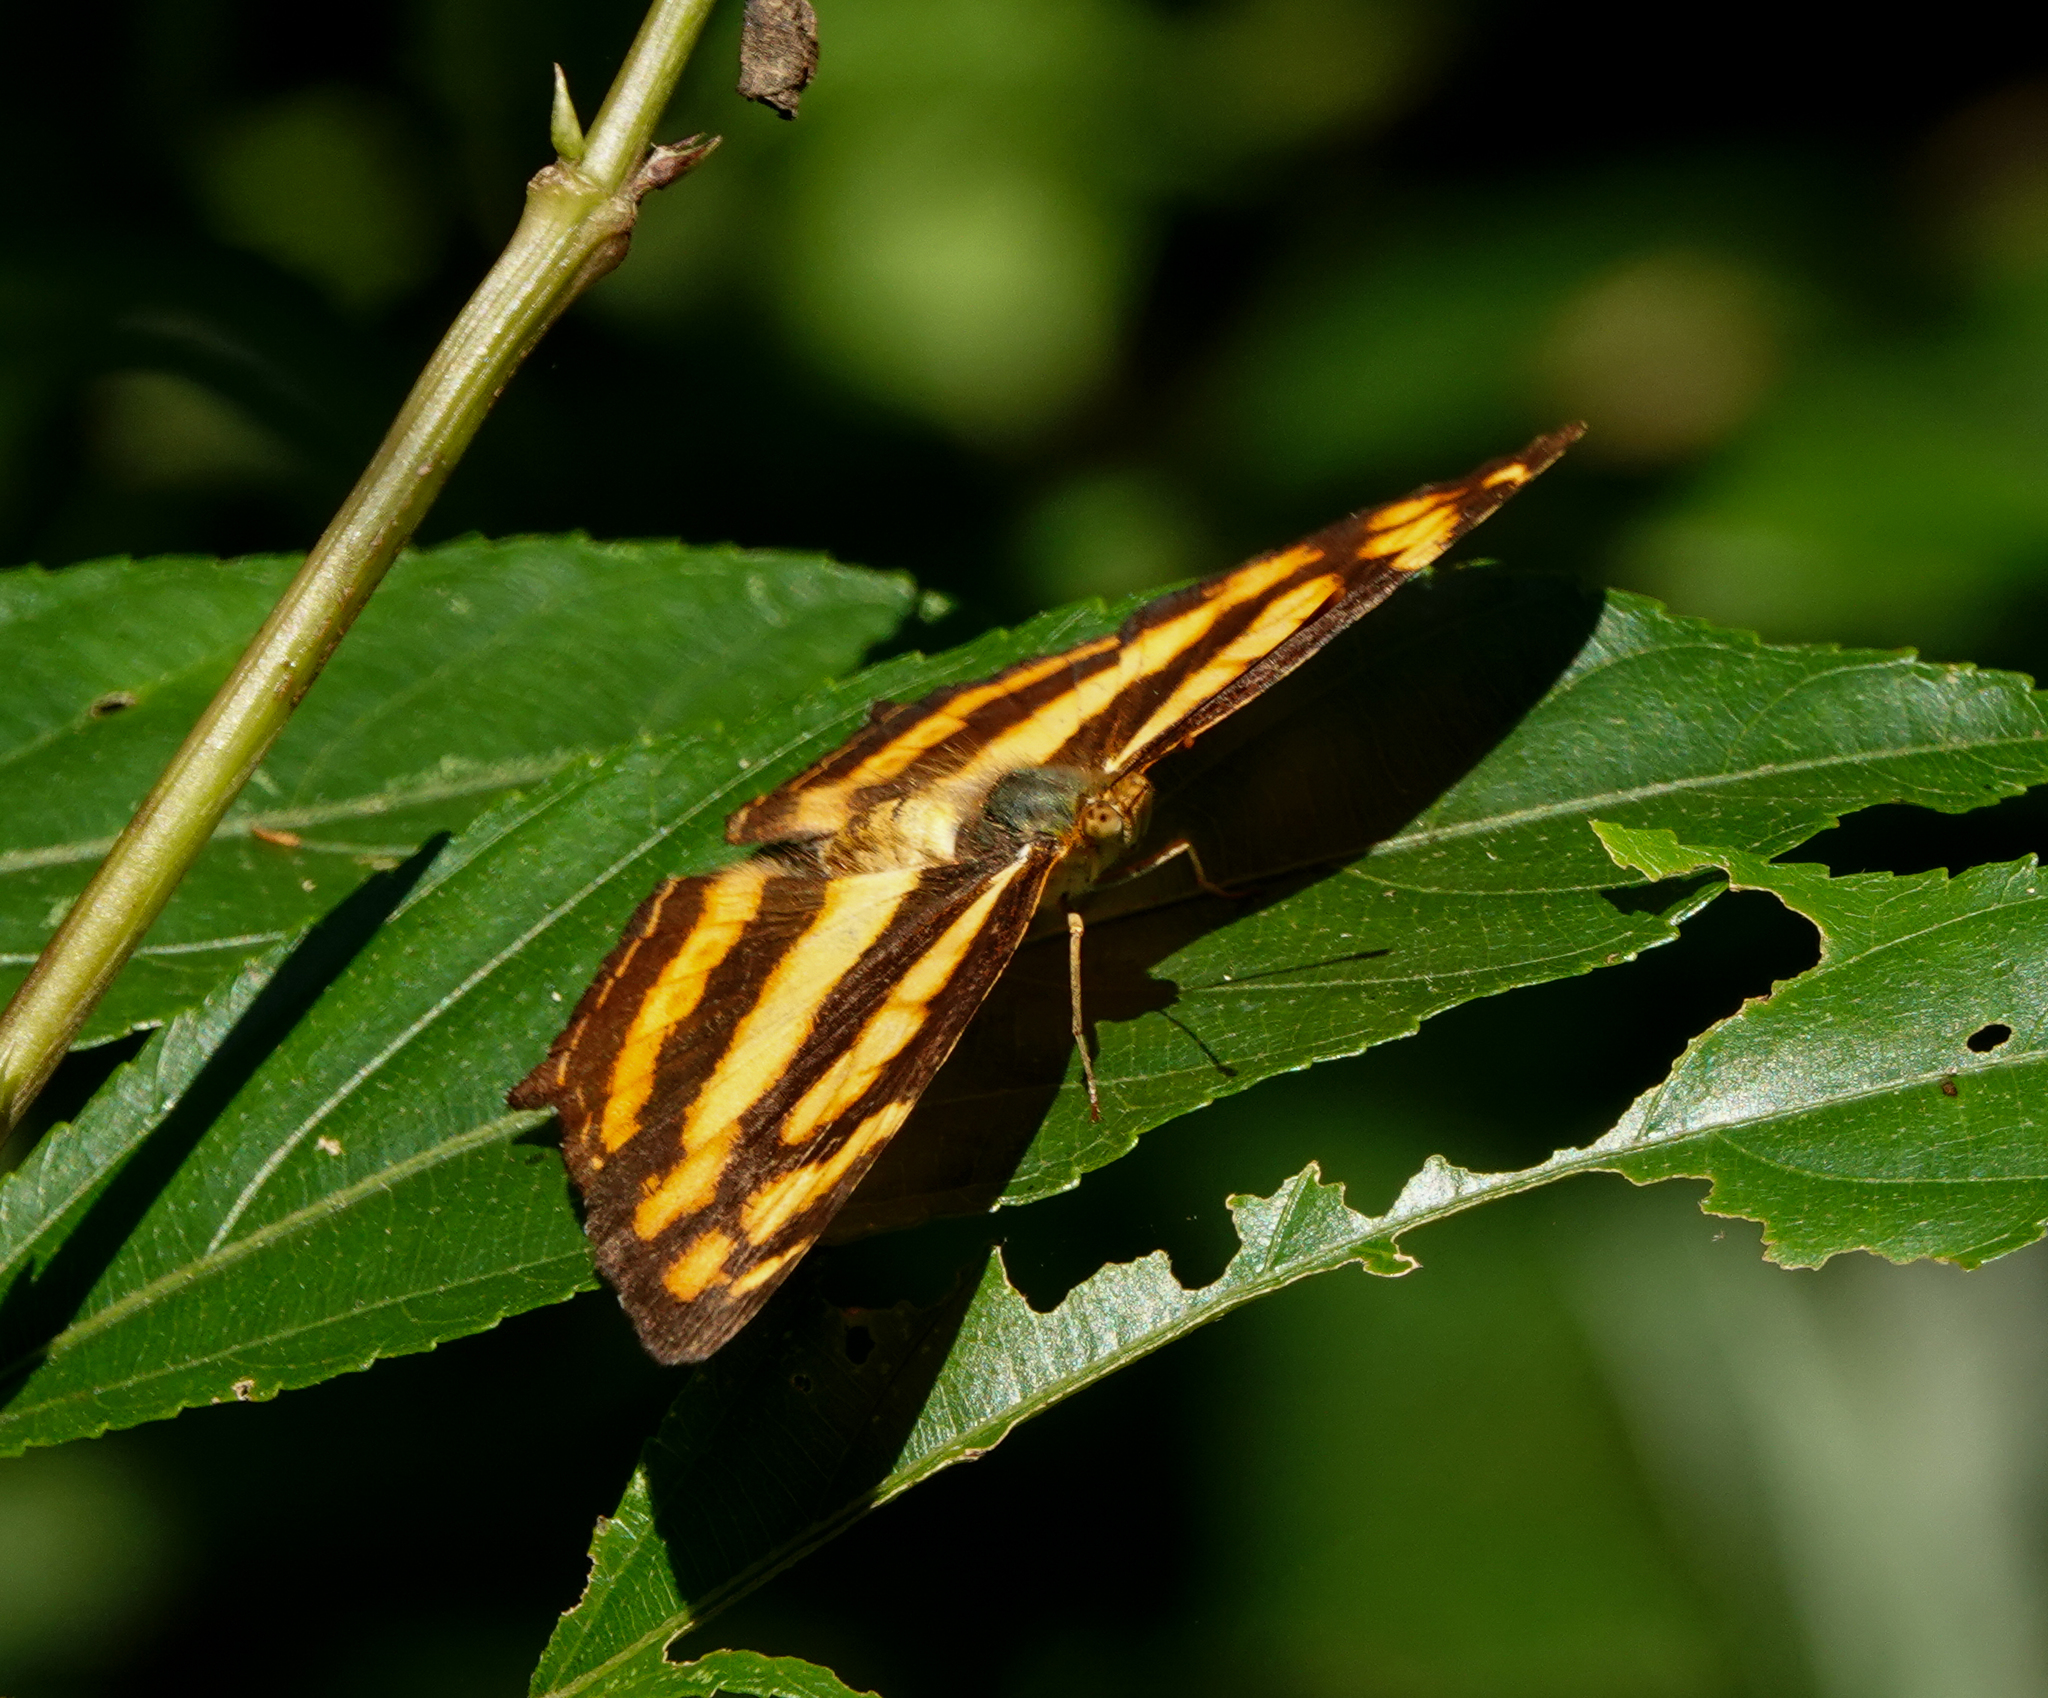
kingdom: Animalia
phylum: Arthropoda
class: Insecta
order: Lepidoptera
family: Nymphalidae
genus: Symbrenthia
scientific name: Symbrenthia hypselis
